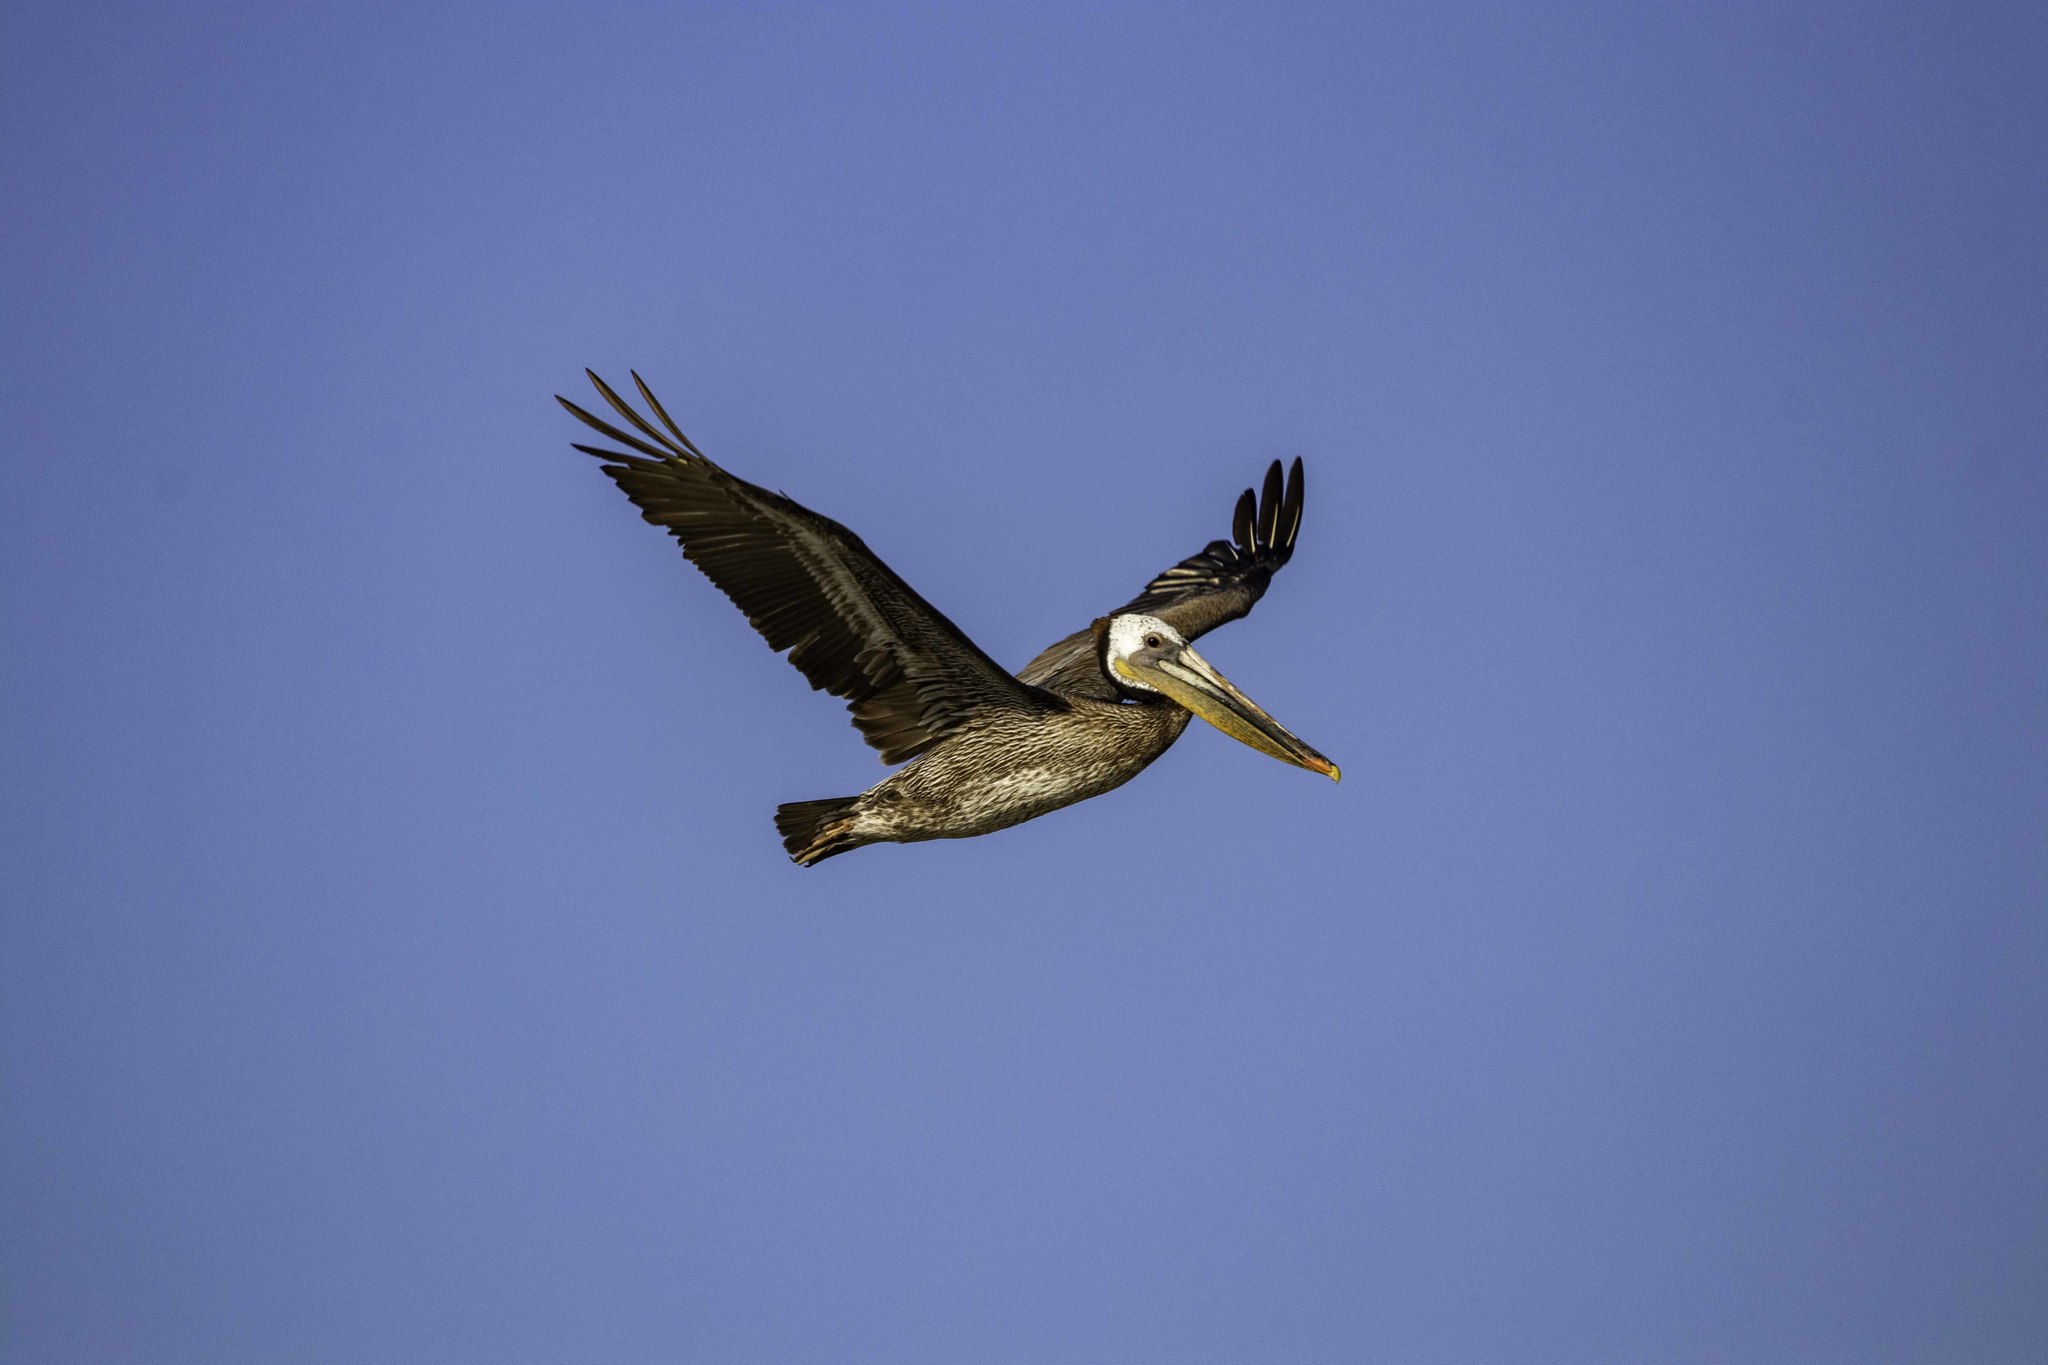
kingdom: Animalia
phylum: Chordata
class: Aves
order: Pelecaniformes
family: Pelecanidae
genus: Pelecanus
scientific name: Pelecanus occidentalis
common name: Brown pelican
